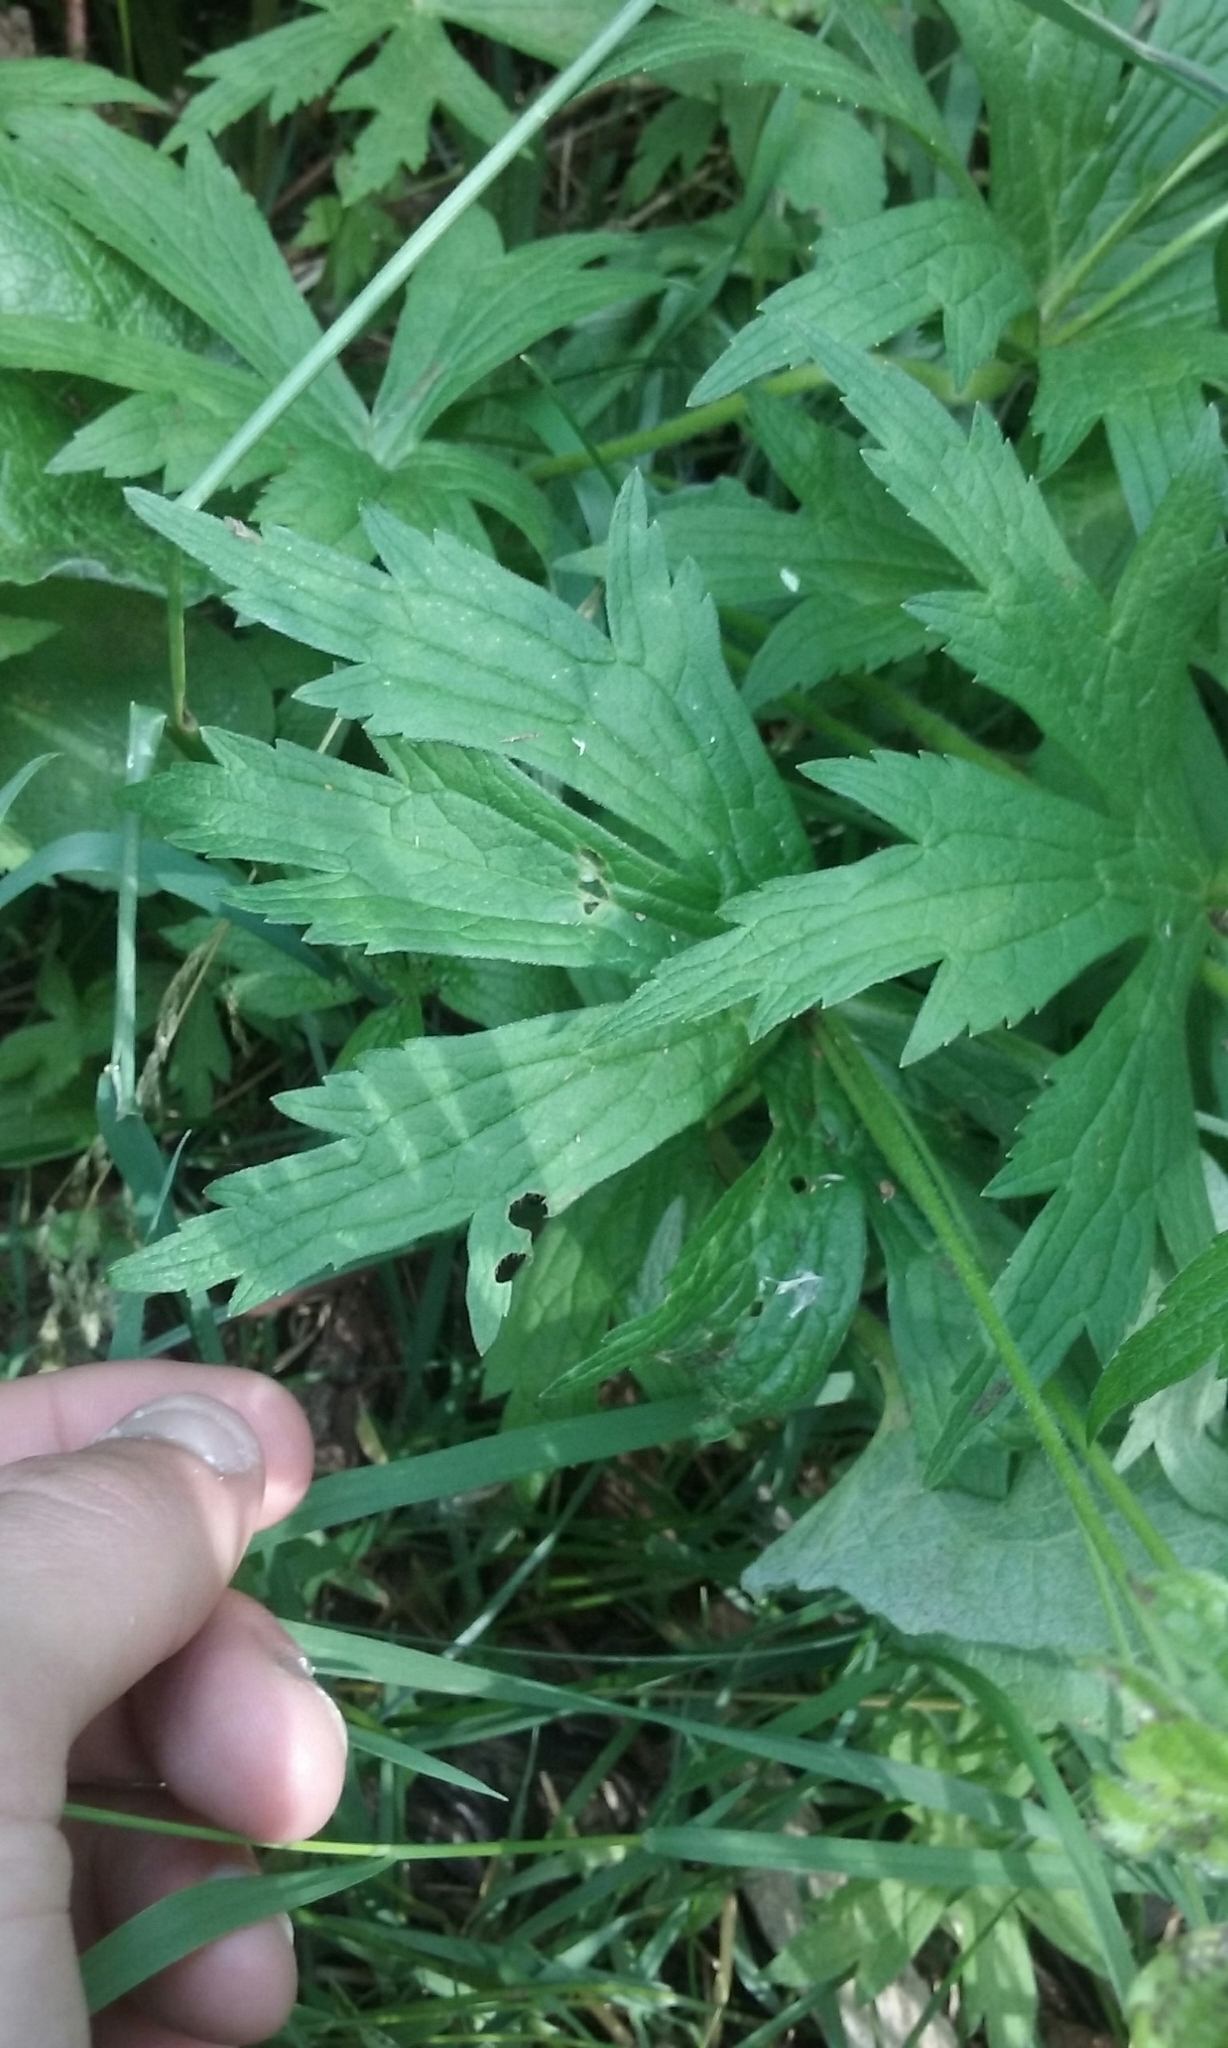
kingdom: Plantae
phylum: Tracheophyta
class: Magnoliopsida
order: Ranunculales
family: Ranunculaceae
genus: Anemonastrum
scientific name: Anemonastrum canadense
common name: Canada anemone
